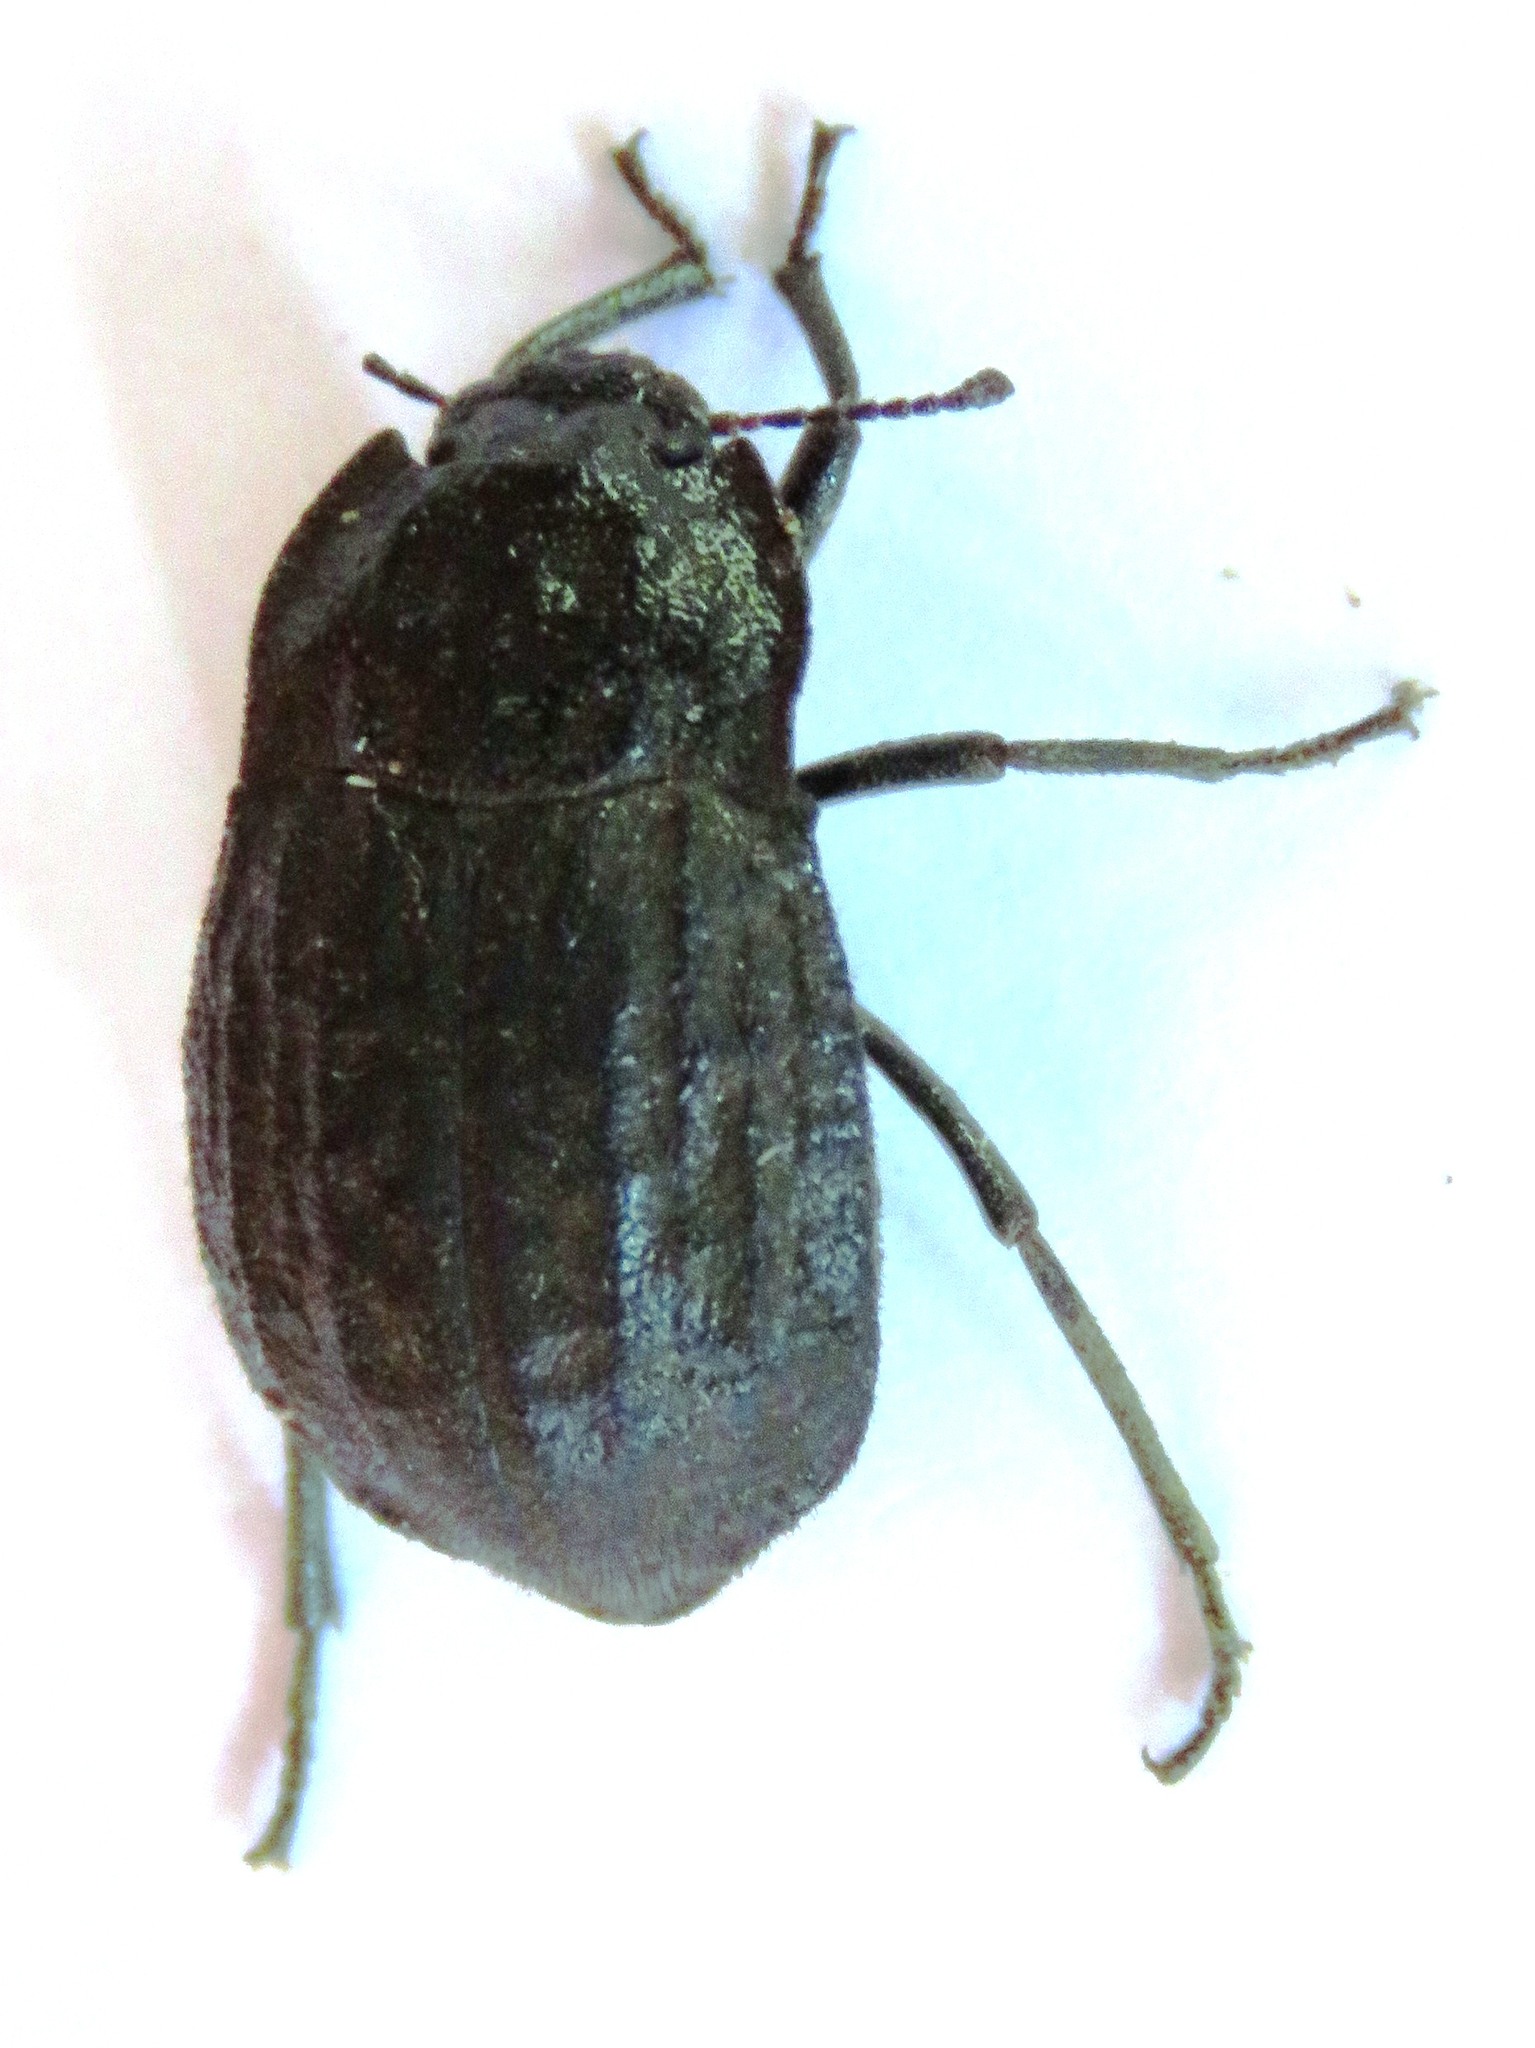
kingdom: Animalia
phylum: Arthropoda
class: Insecta
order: Coleoptera
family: Tenebrionidae
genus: Branchus
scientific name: Branchus obscurus
